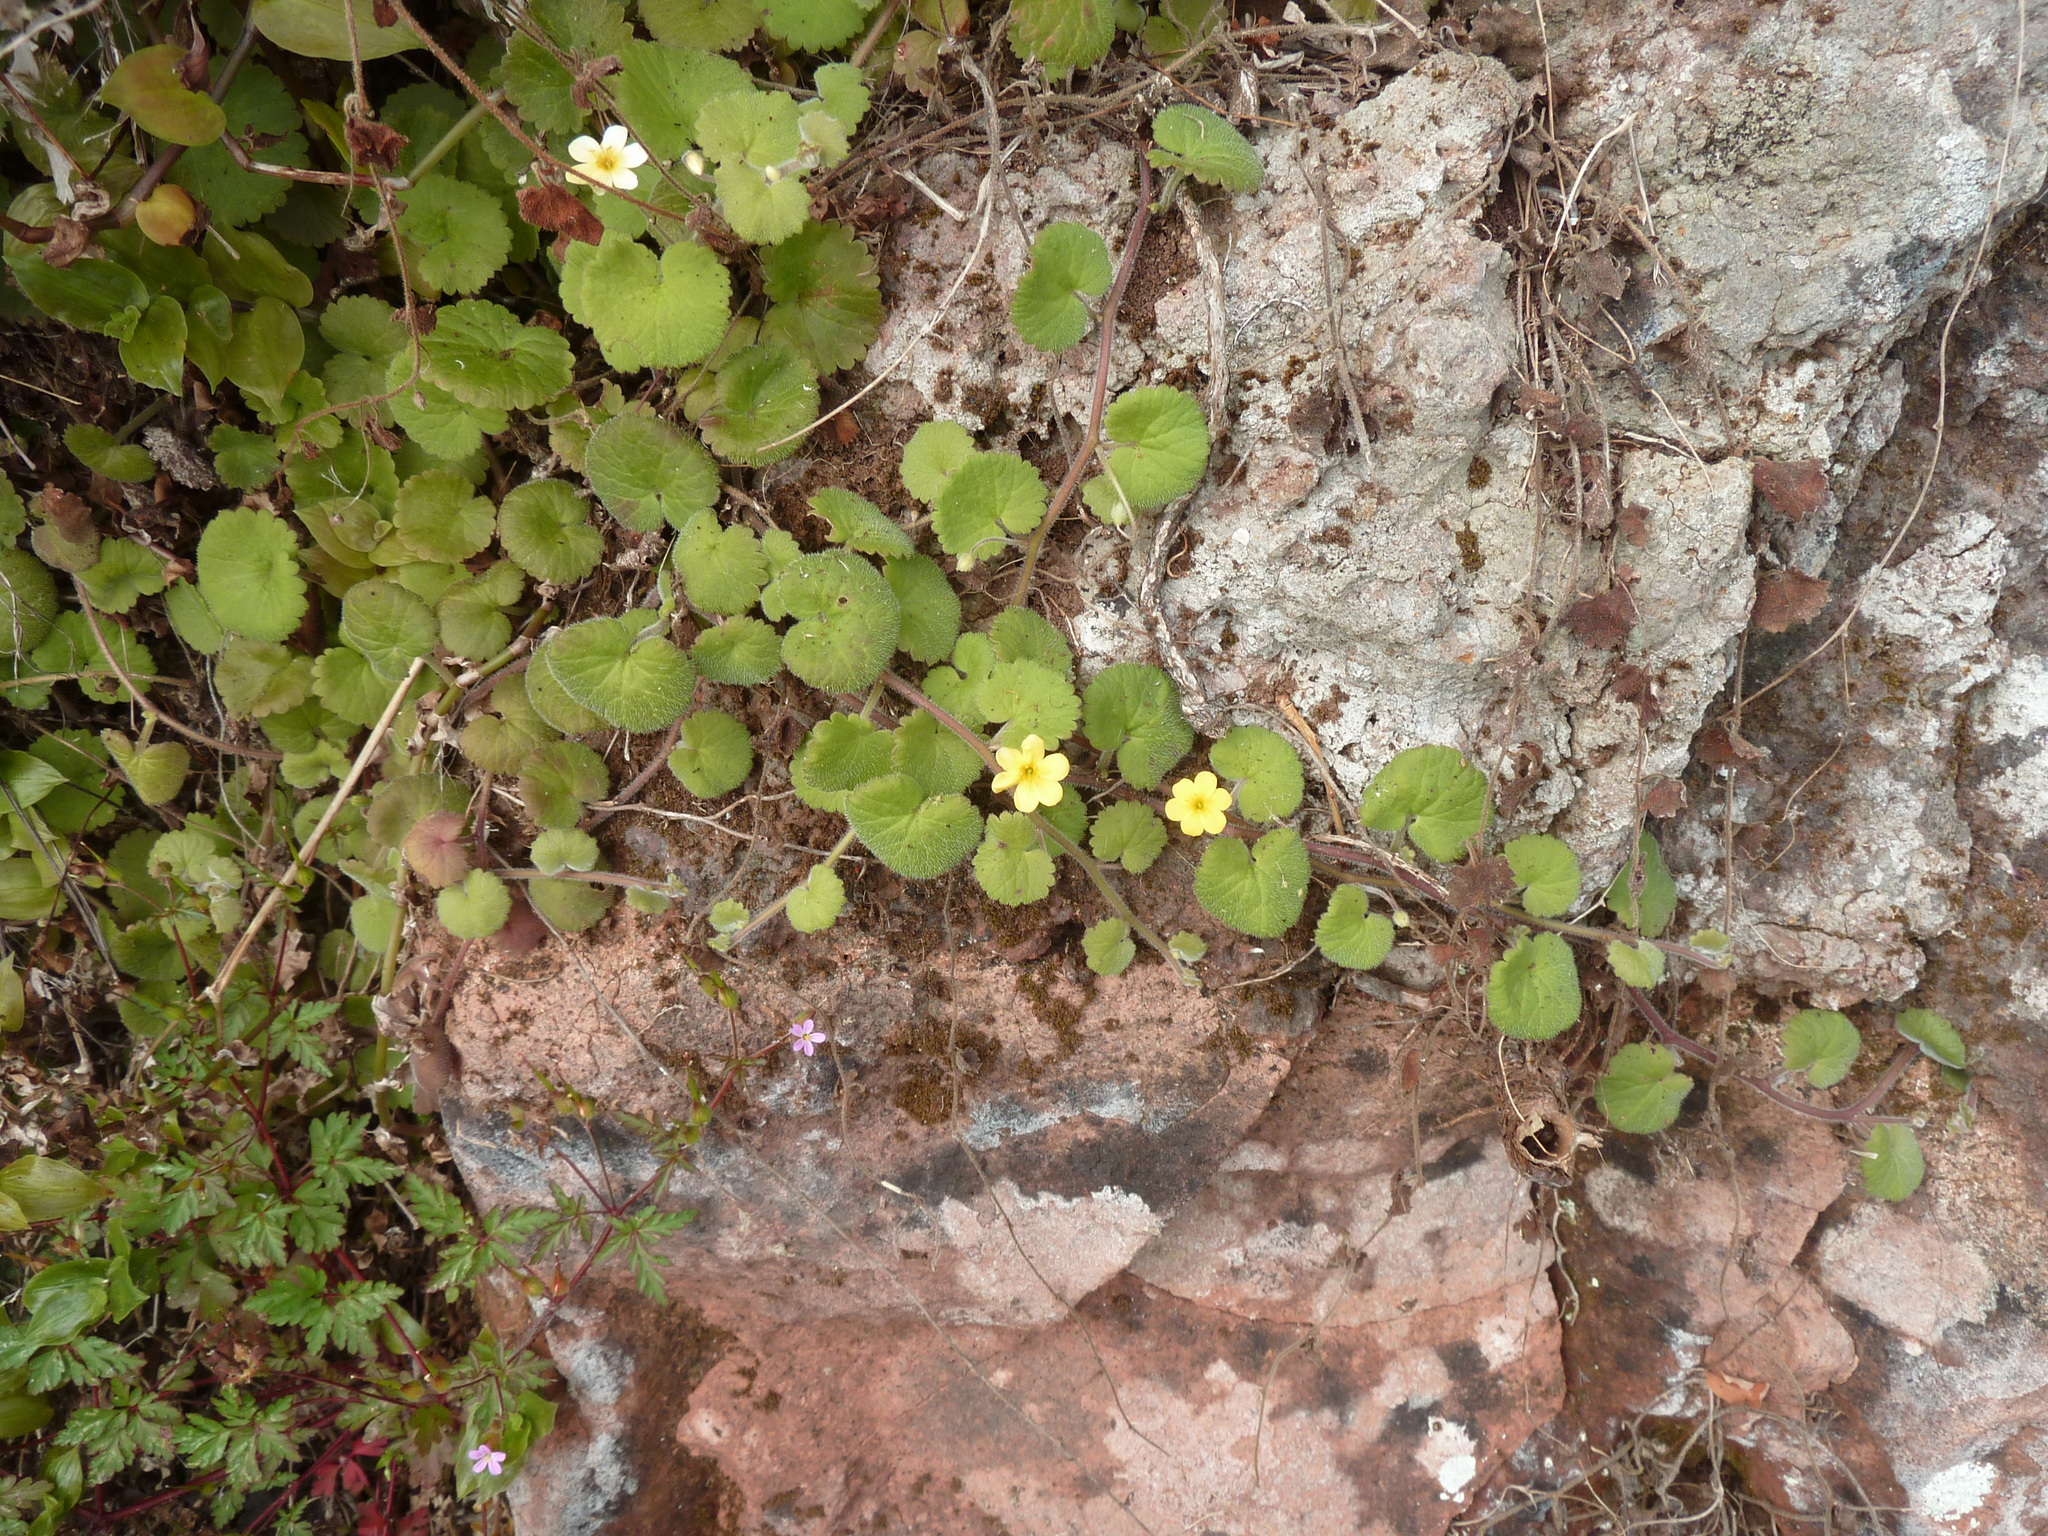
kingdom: Plantae
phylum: Tracheophyta
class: Magnoliopsida
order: Lamiales
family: Plantaginaceae
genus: Sibthorpia
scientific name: Sibthorpia peregrina
